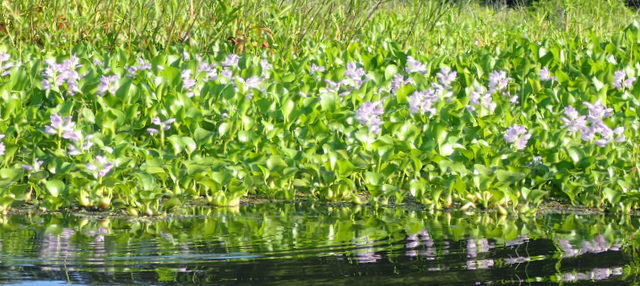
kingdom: Plantae
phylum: Tracheophyta
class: Liliopsida
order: Commelinales
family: Pontederiaceae
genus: Pontederia
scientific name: Pontederia crassipes
